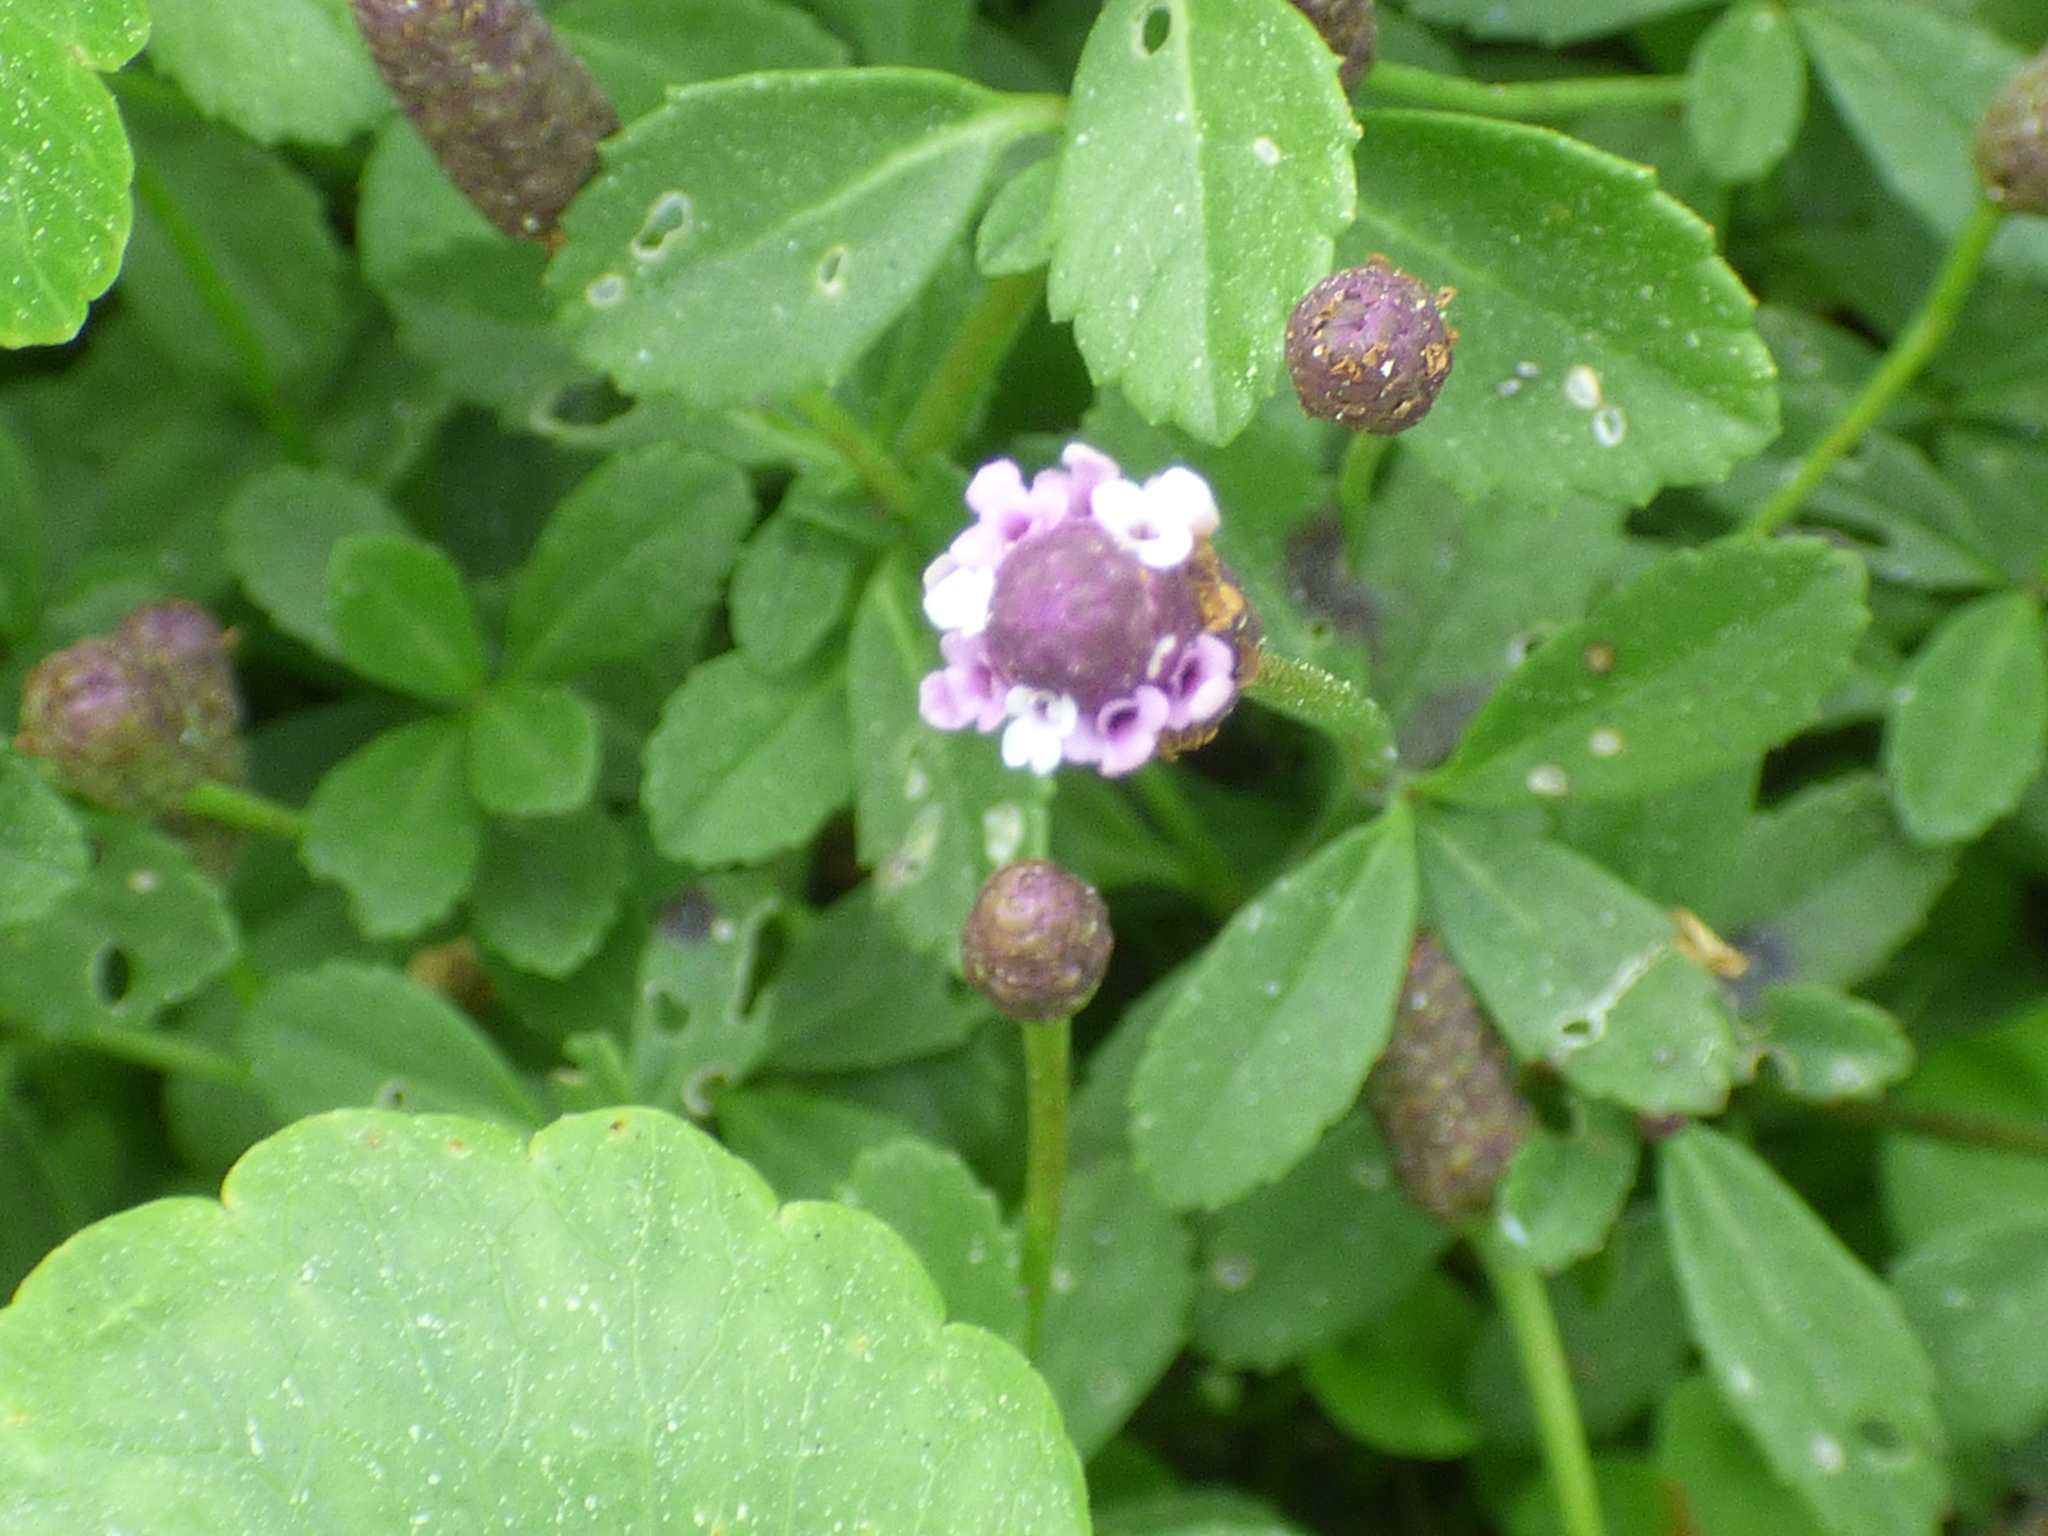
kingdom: Plantae
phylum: Tracheophyta
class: Magnoliopsida
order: Lamiales
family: Verbenaceae
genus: Phyla
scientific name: Phyla nodiflora
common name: Frogfruit
